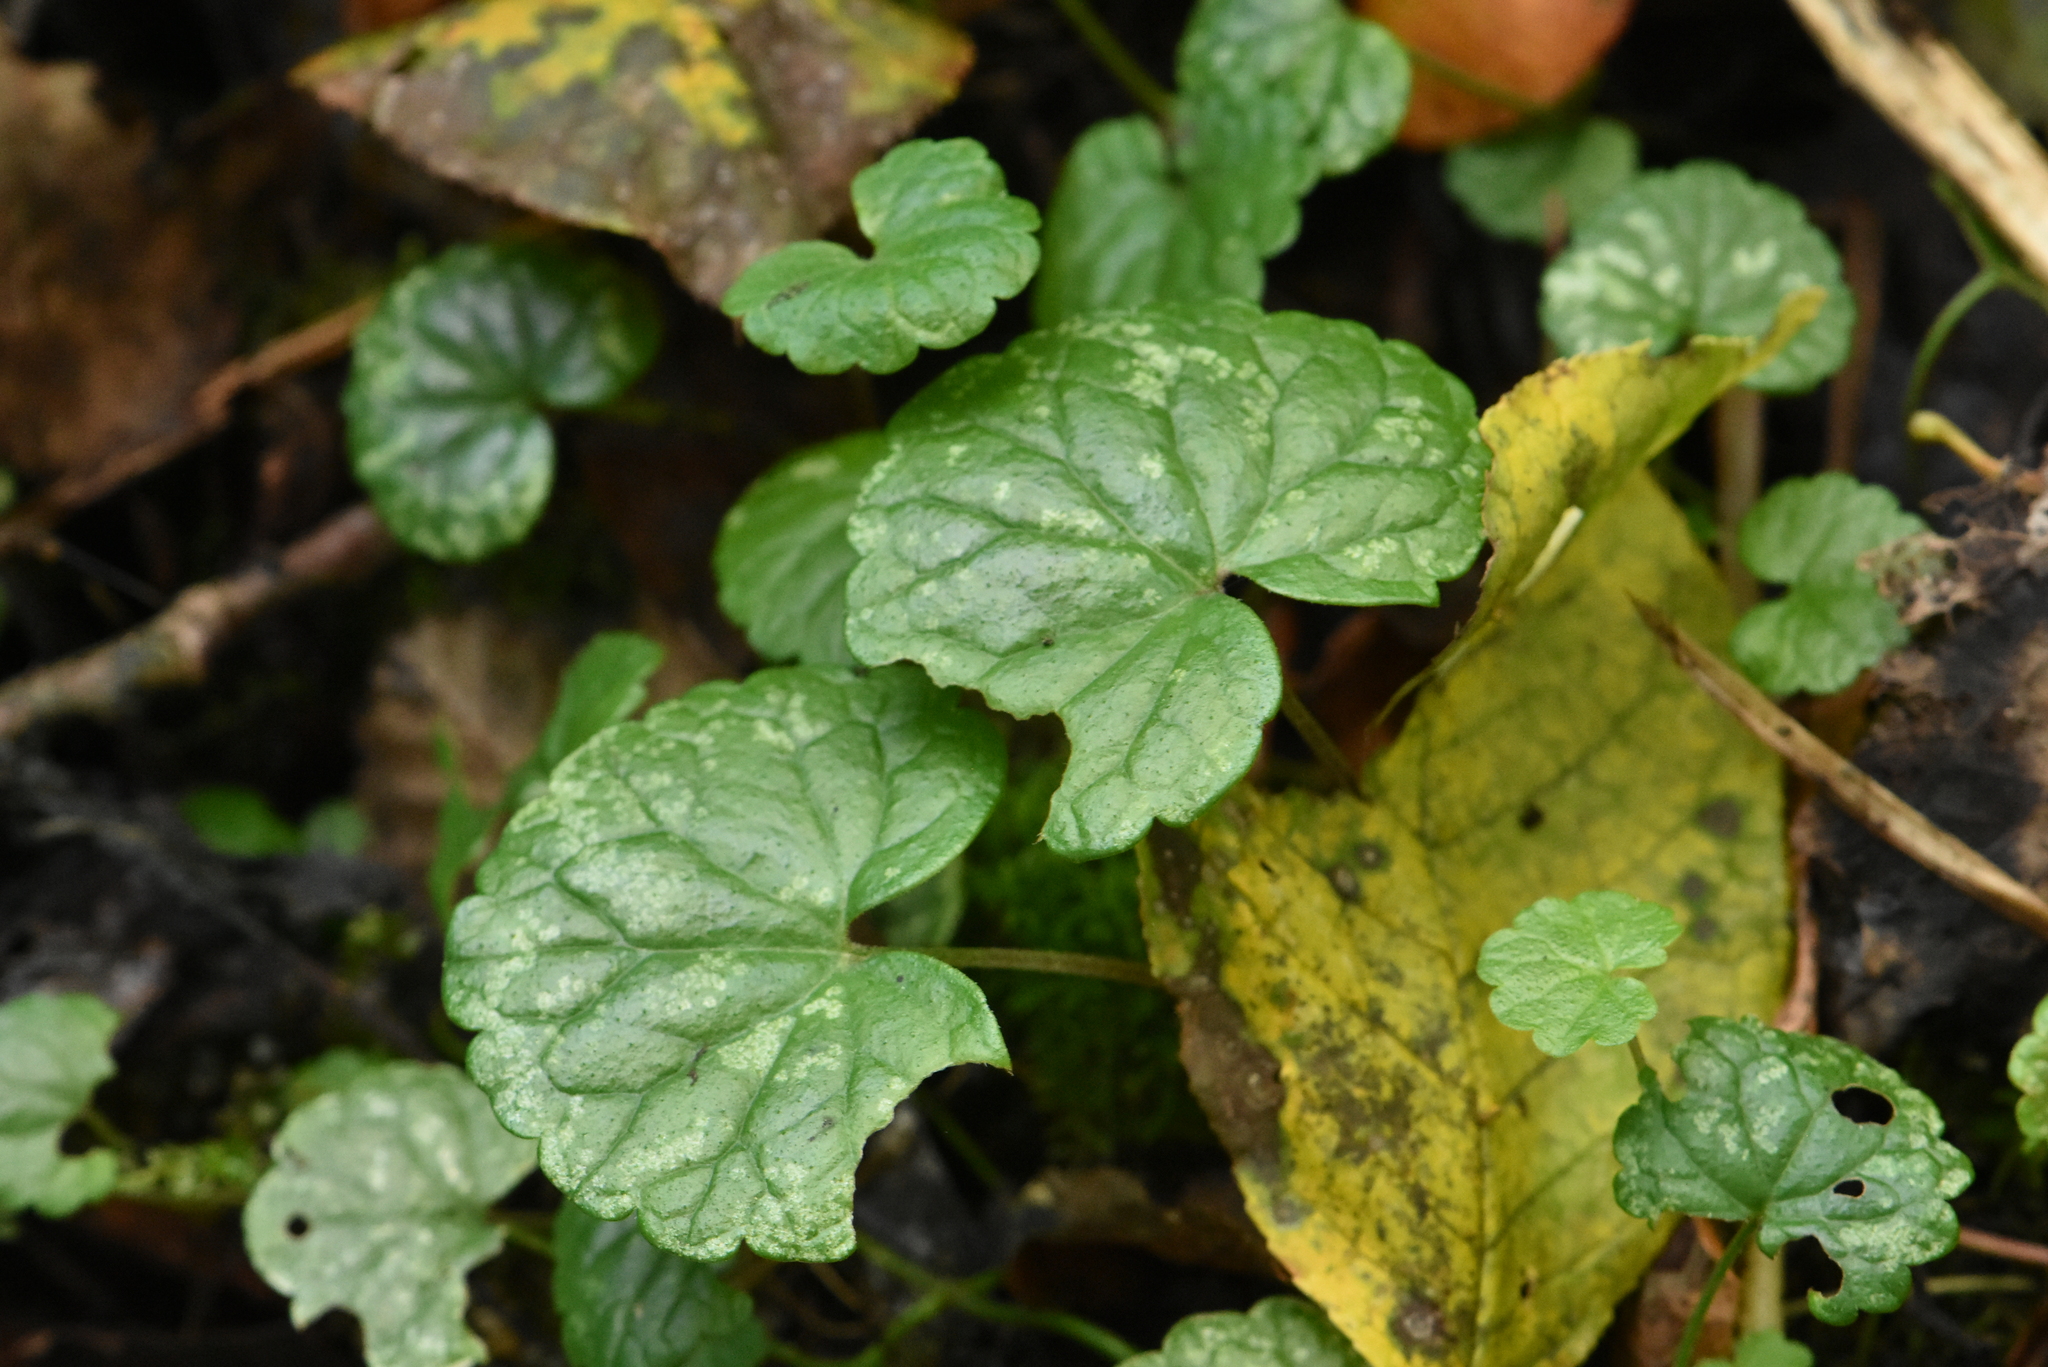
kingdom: Plantae
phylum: Tracheophyta
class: Magnoliopsida
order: Lamiales
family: Lamiaceae
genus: Glechoma
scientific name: Glechoma hederacea
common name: Ground ivy
